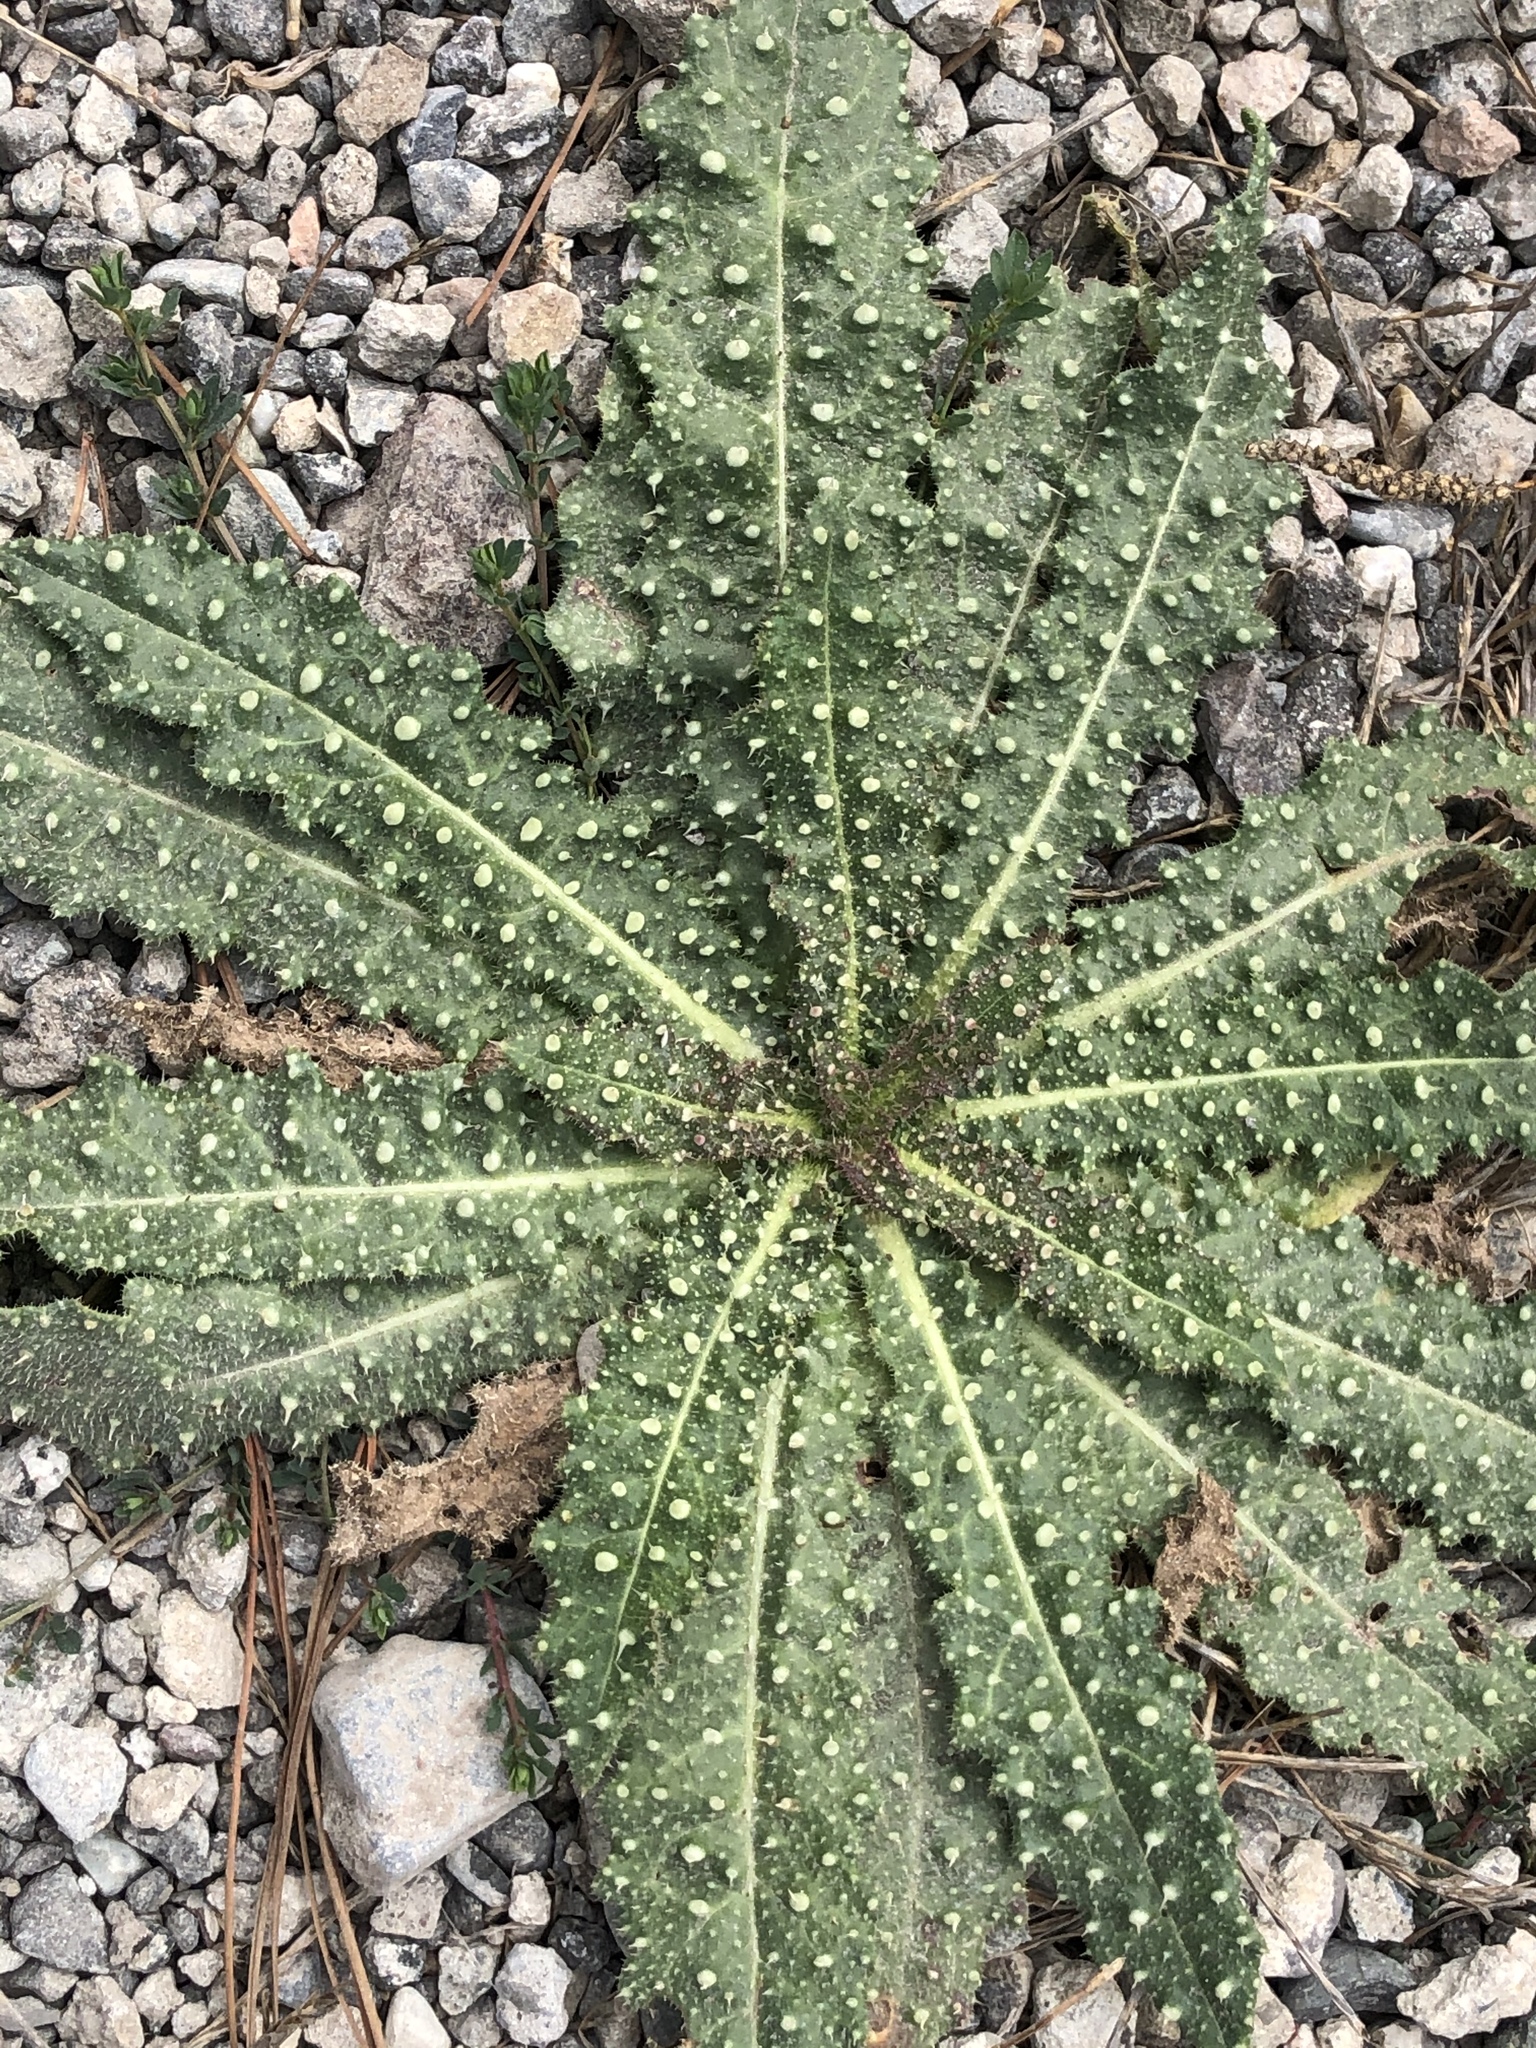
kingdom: Plantae
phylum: Tracheophyta
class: Magnoliopsida
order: Asterales
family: Asteraceae
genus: Helminthotheca
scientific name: Helminthotheca echioides
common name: Ox-tongue
